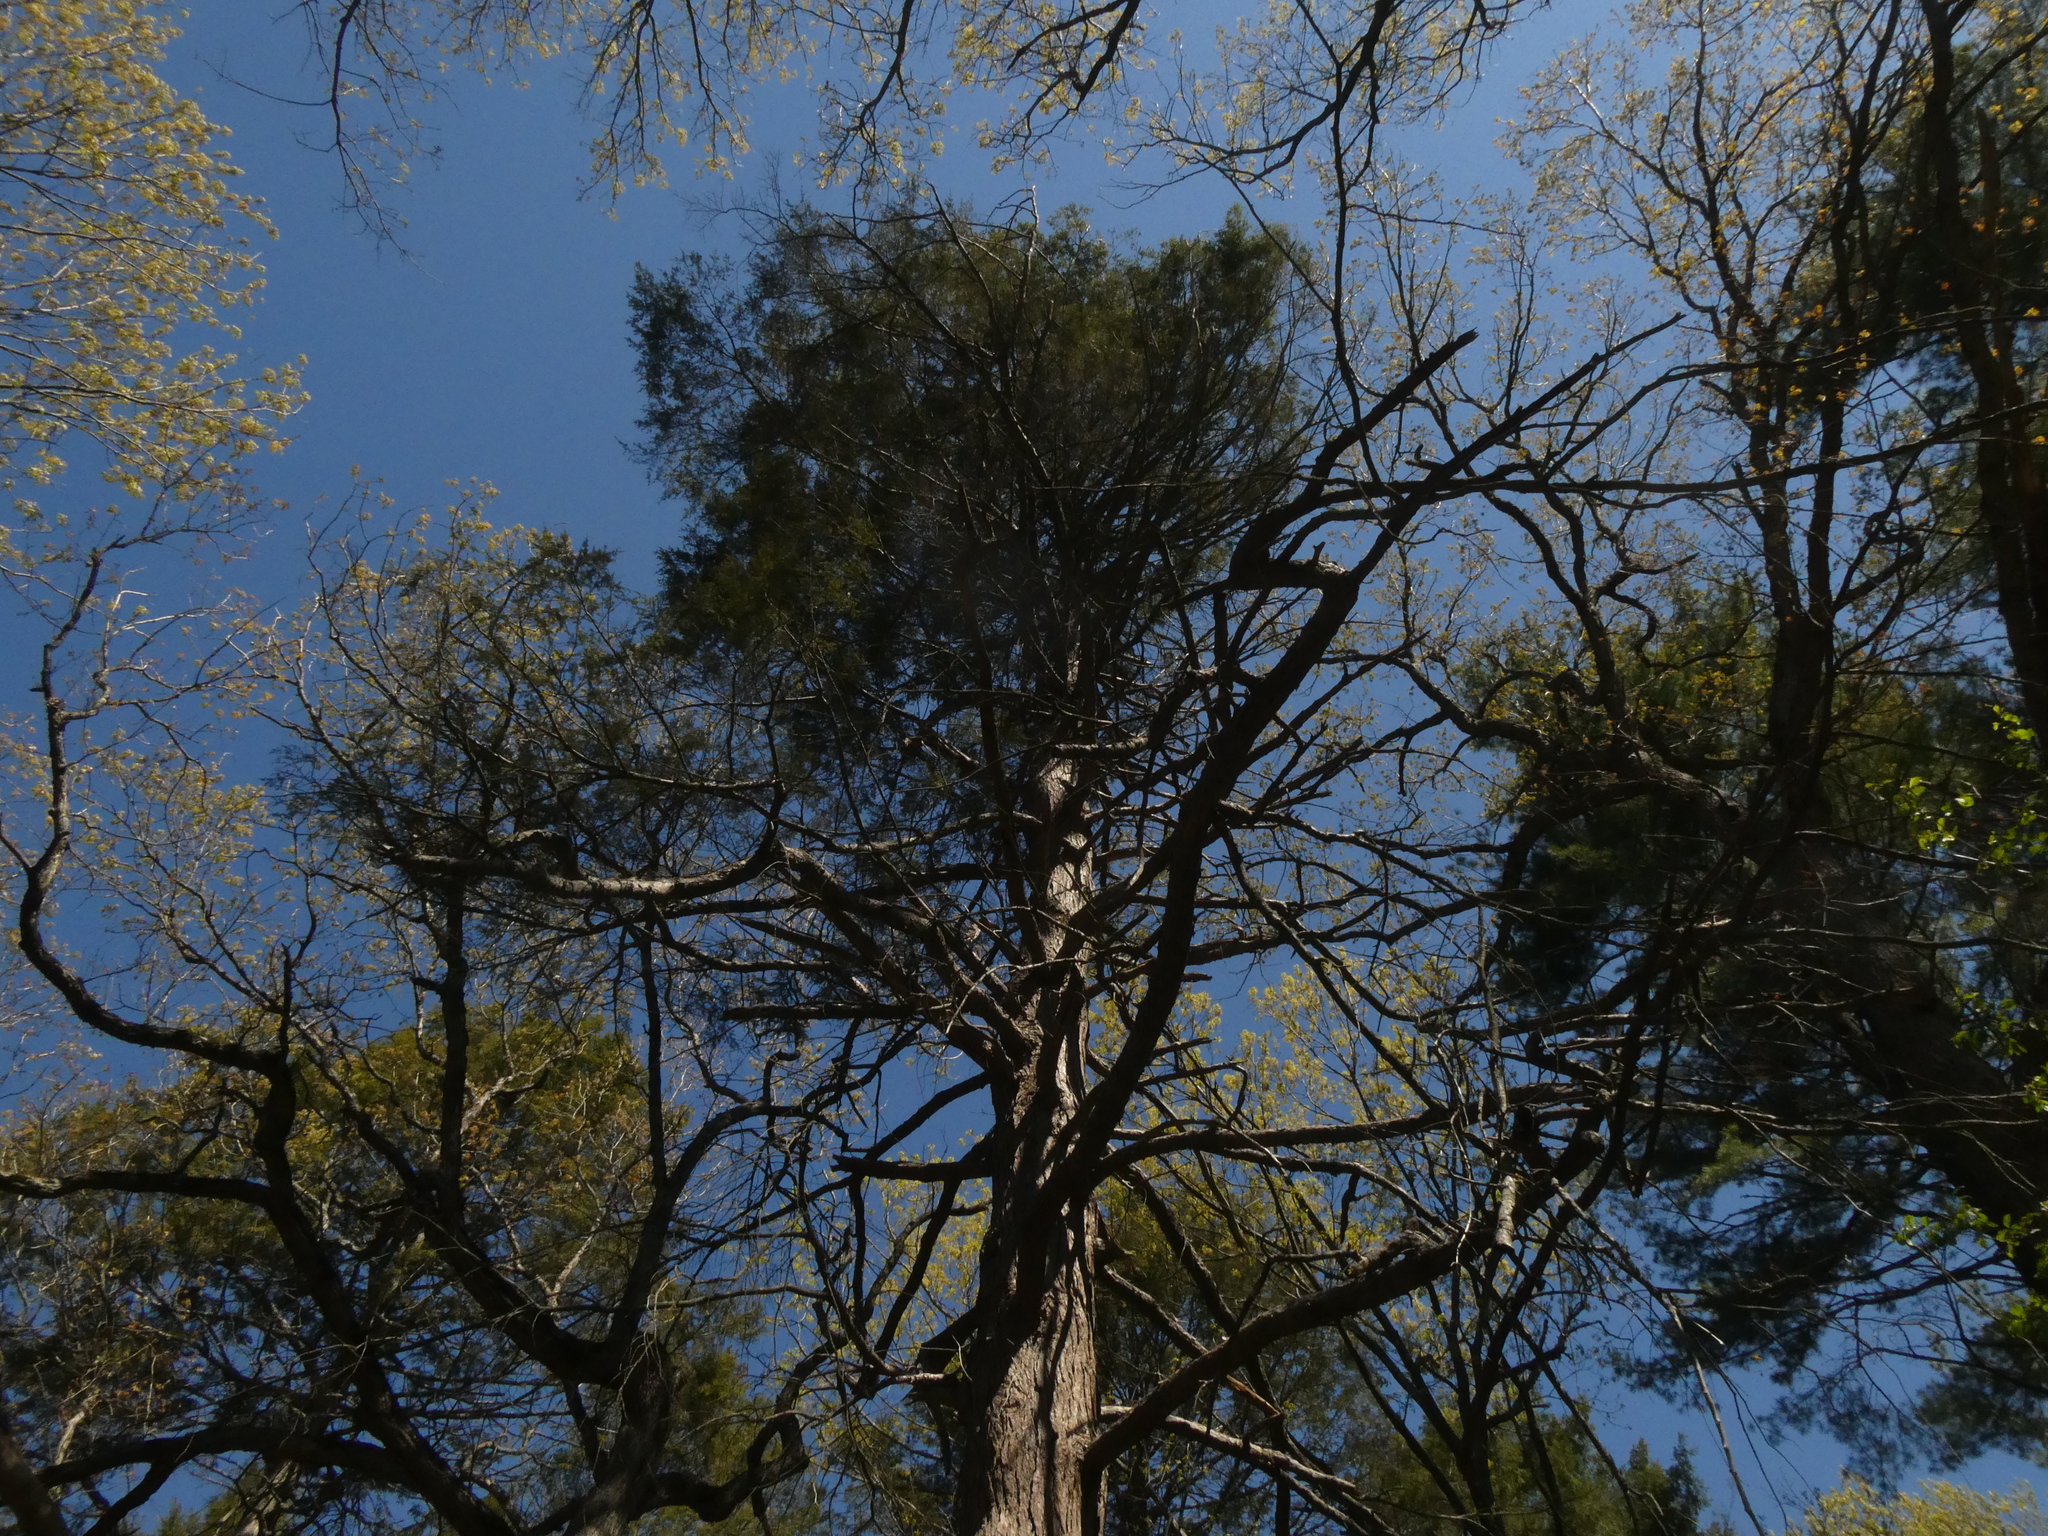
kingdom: Plantae
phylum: Tracheophyta
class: Pinopsida
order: Pinales
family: Pinaceae
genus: Tsuga
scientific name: Tsuga canadensis
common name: Eastern hemlock
